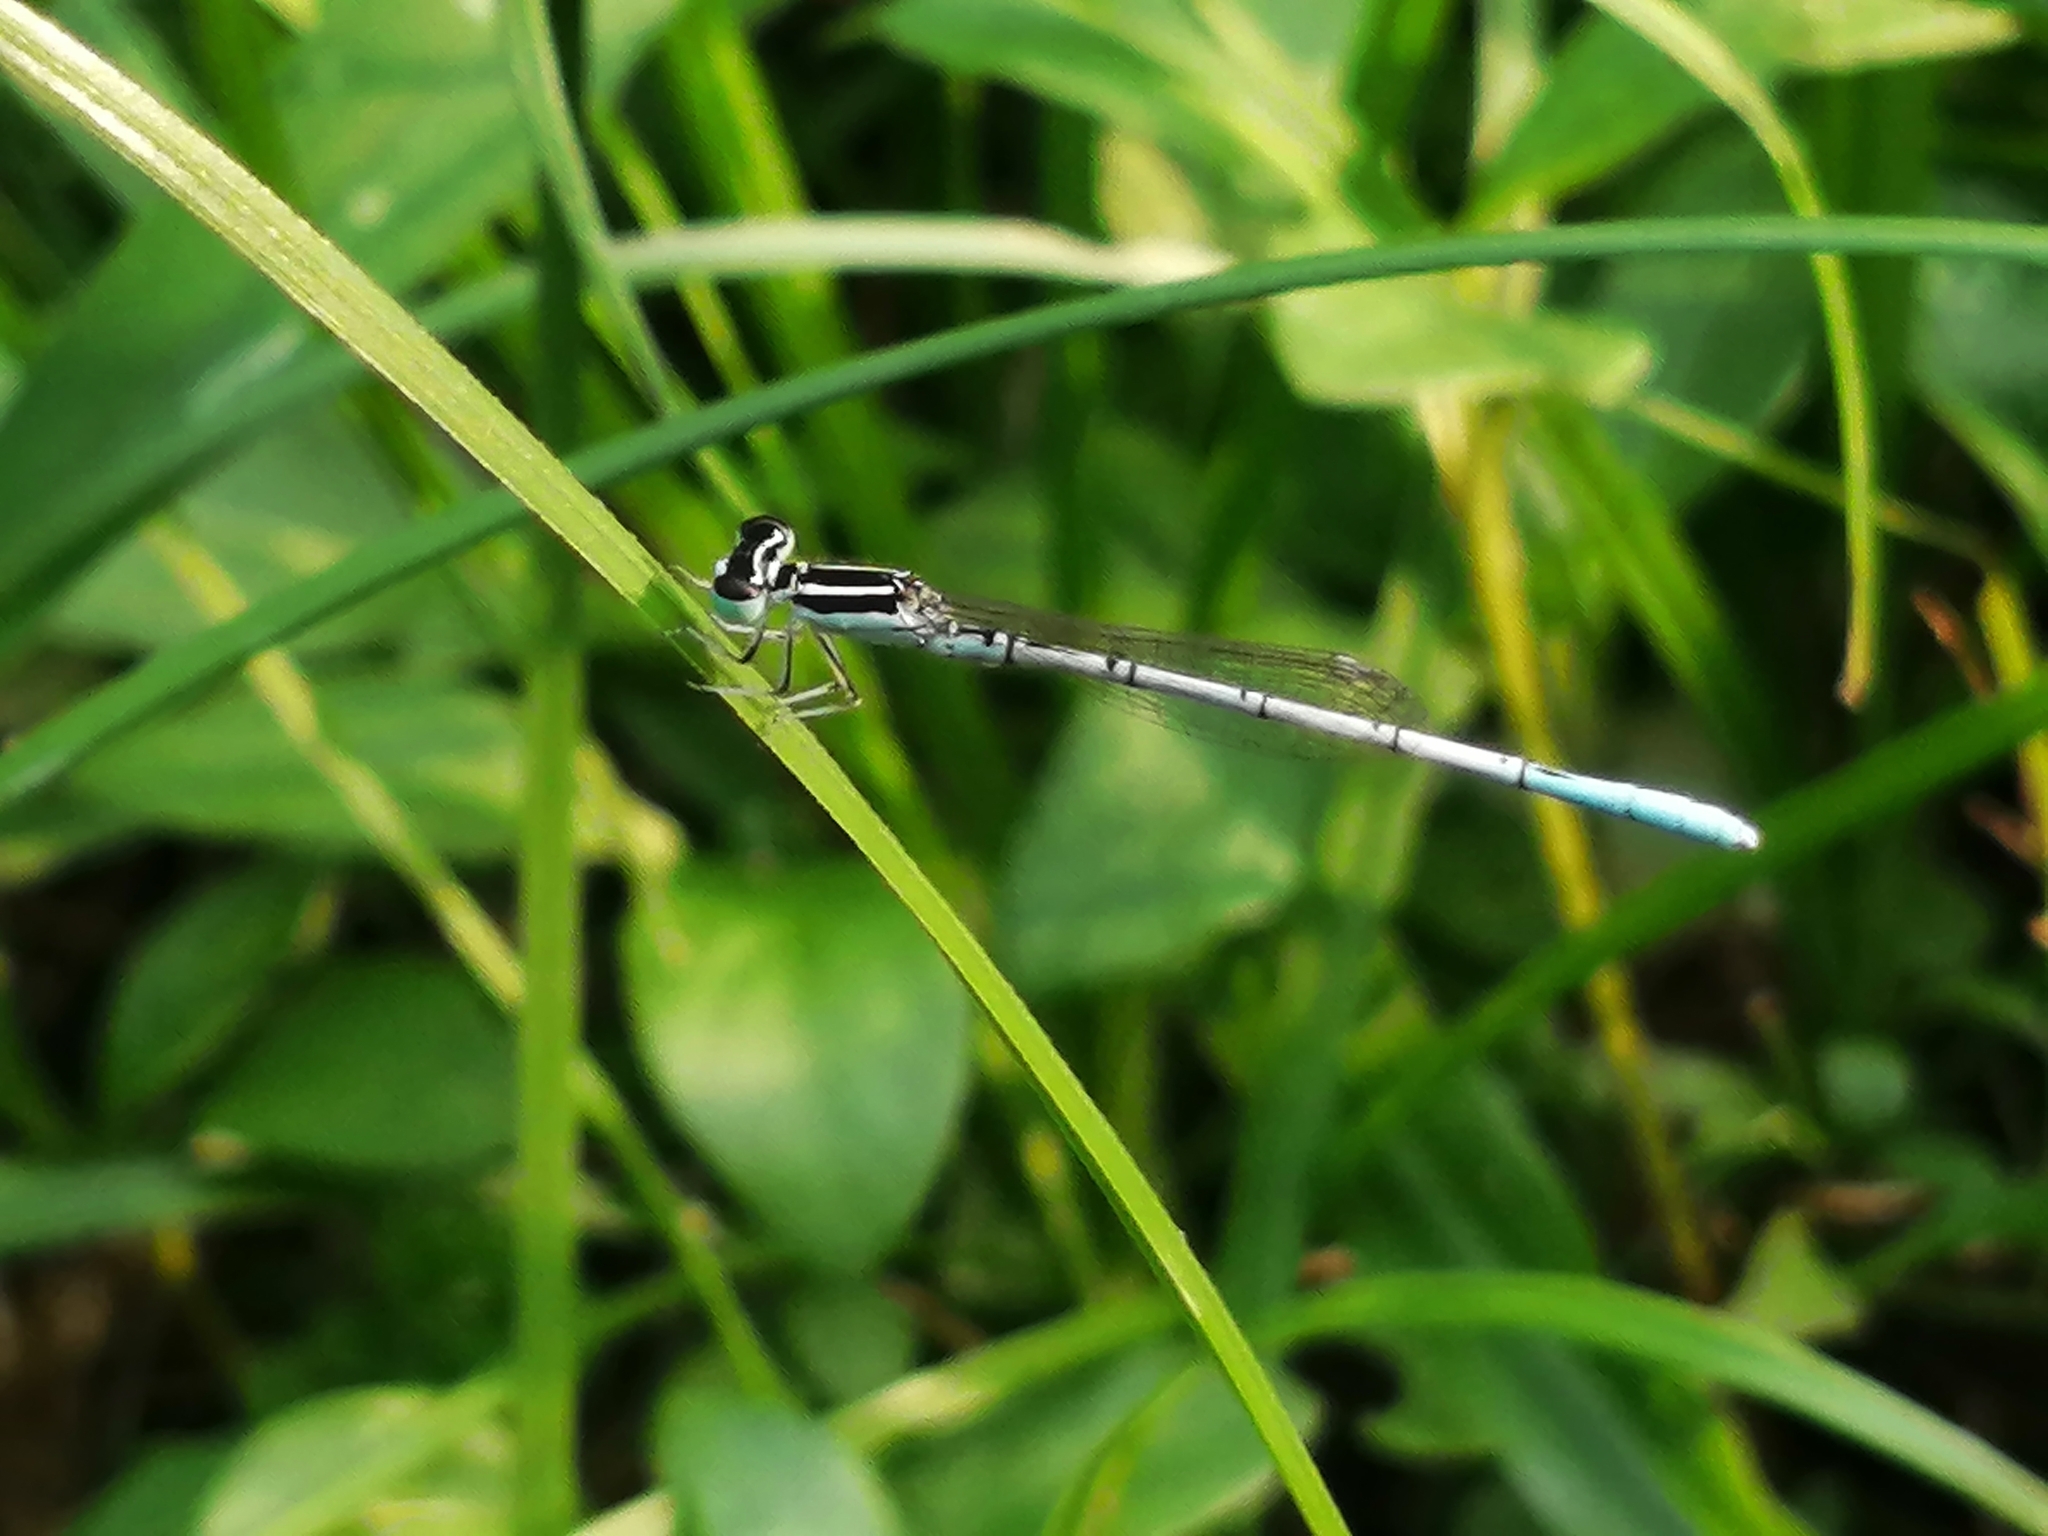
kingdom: Animalia
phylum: Arthropoda
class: Insecta
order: Odonata
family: Coenagrionidae
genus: Agriocnemis
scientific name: Agriocnemis pieris
